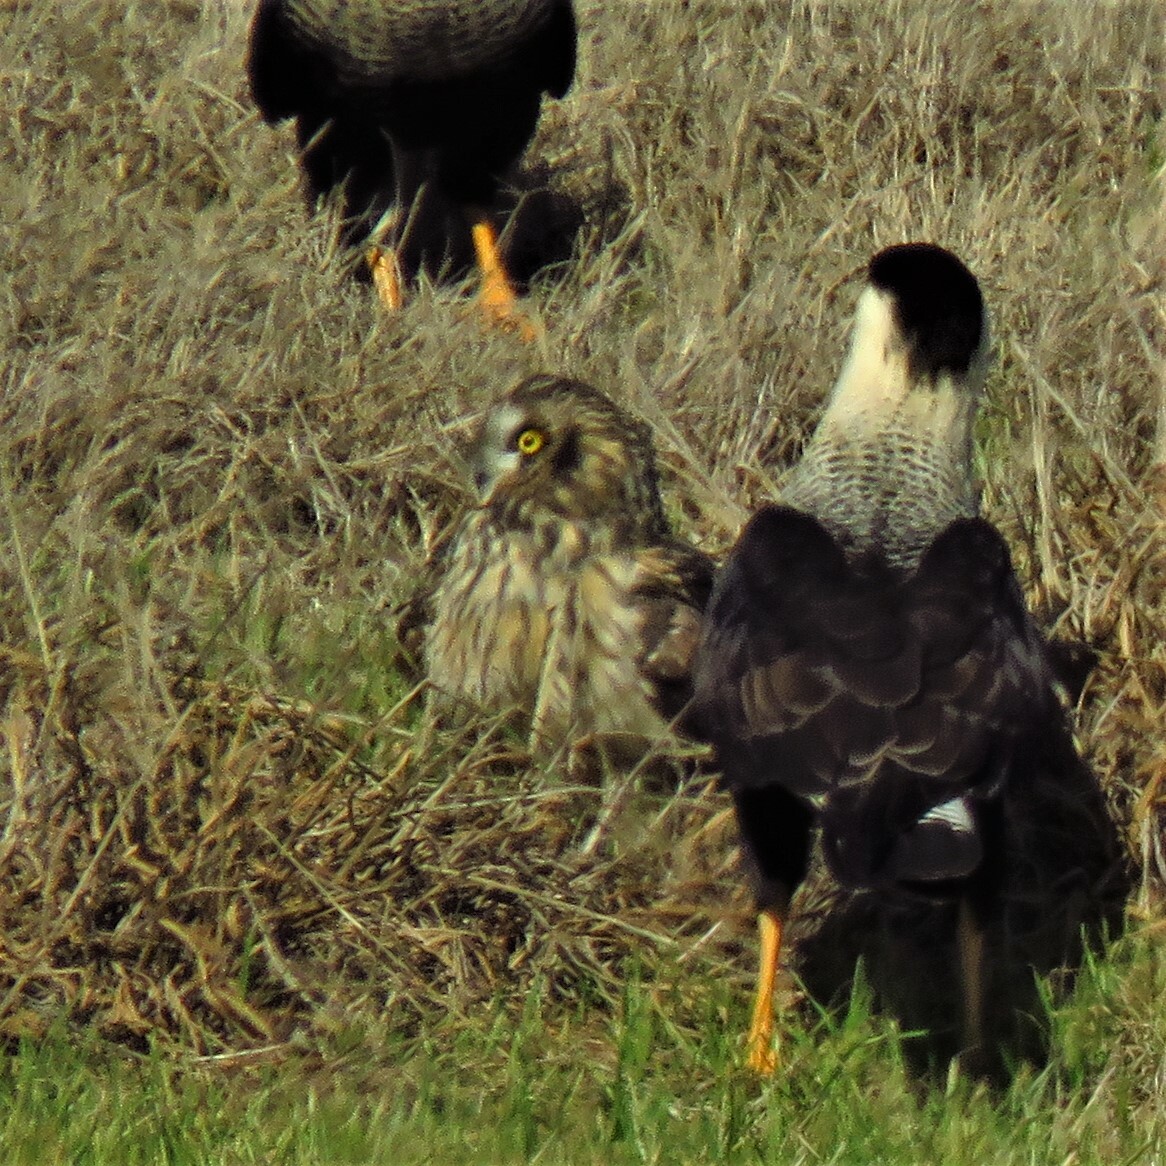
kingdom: Animalia
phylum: Chordata
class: Aves
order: Strigiformes
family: Strigidae
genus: Asio
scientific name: Asio flammeus
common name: Short-eared owl
